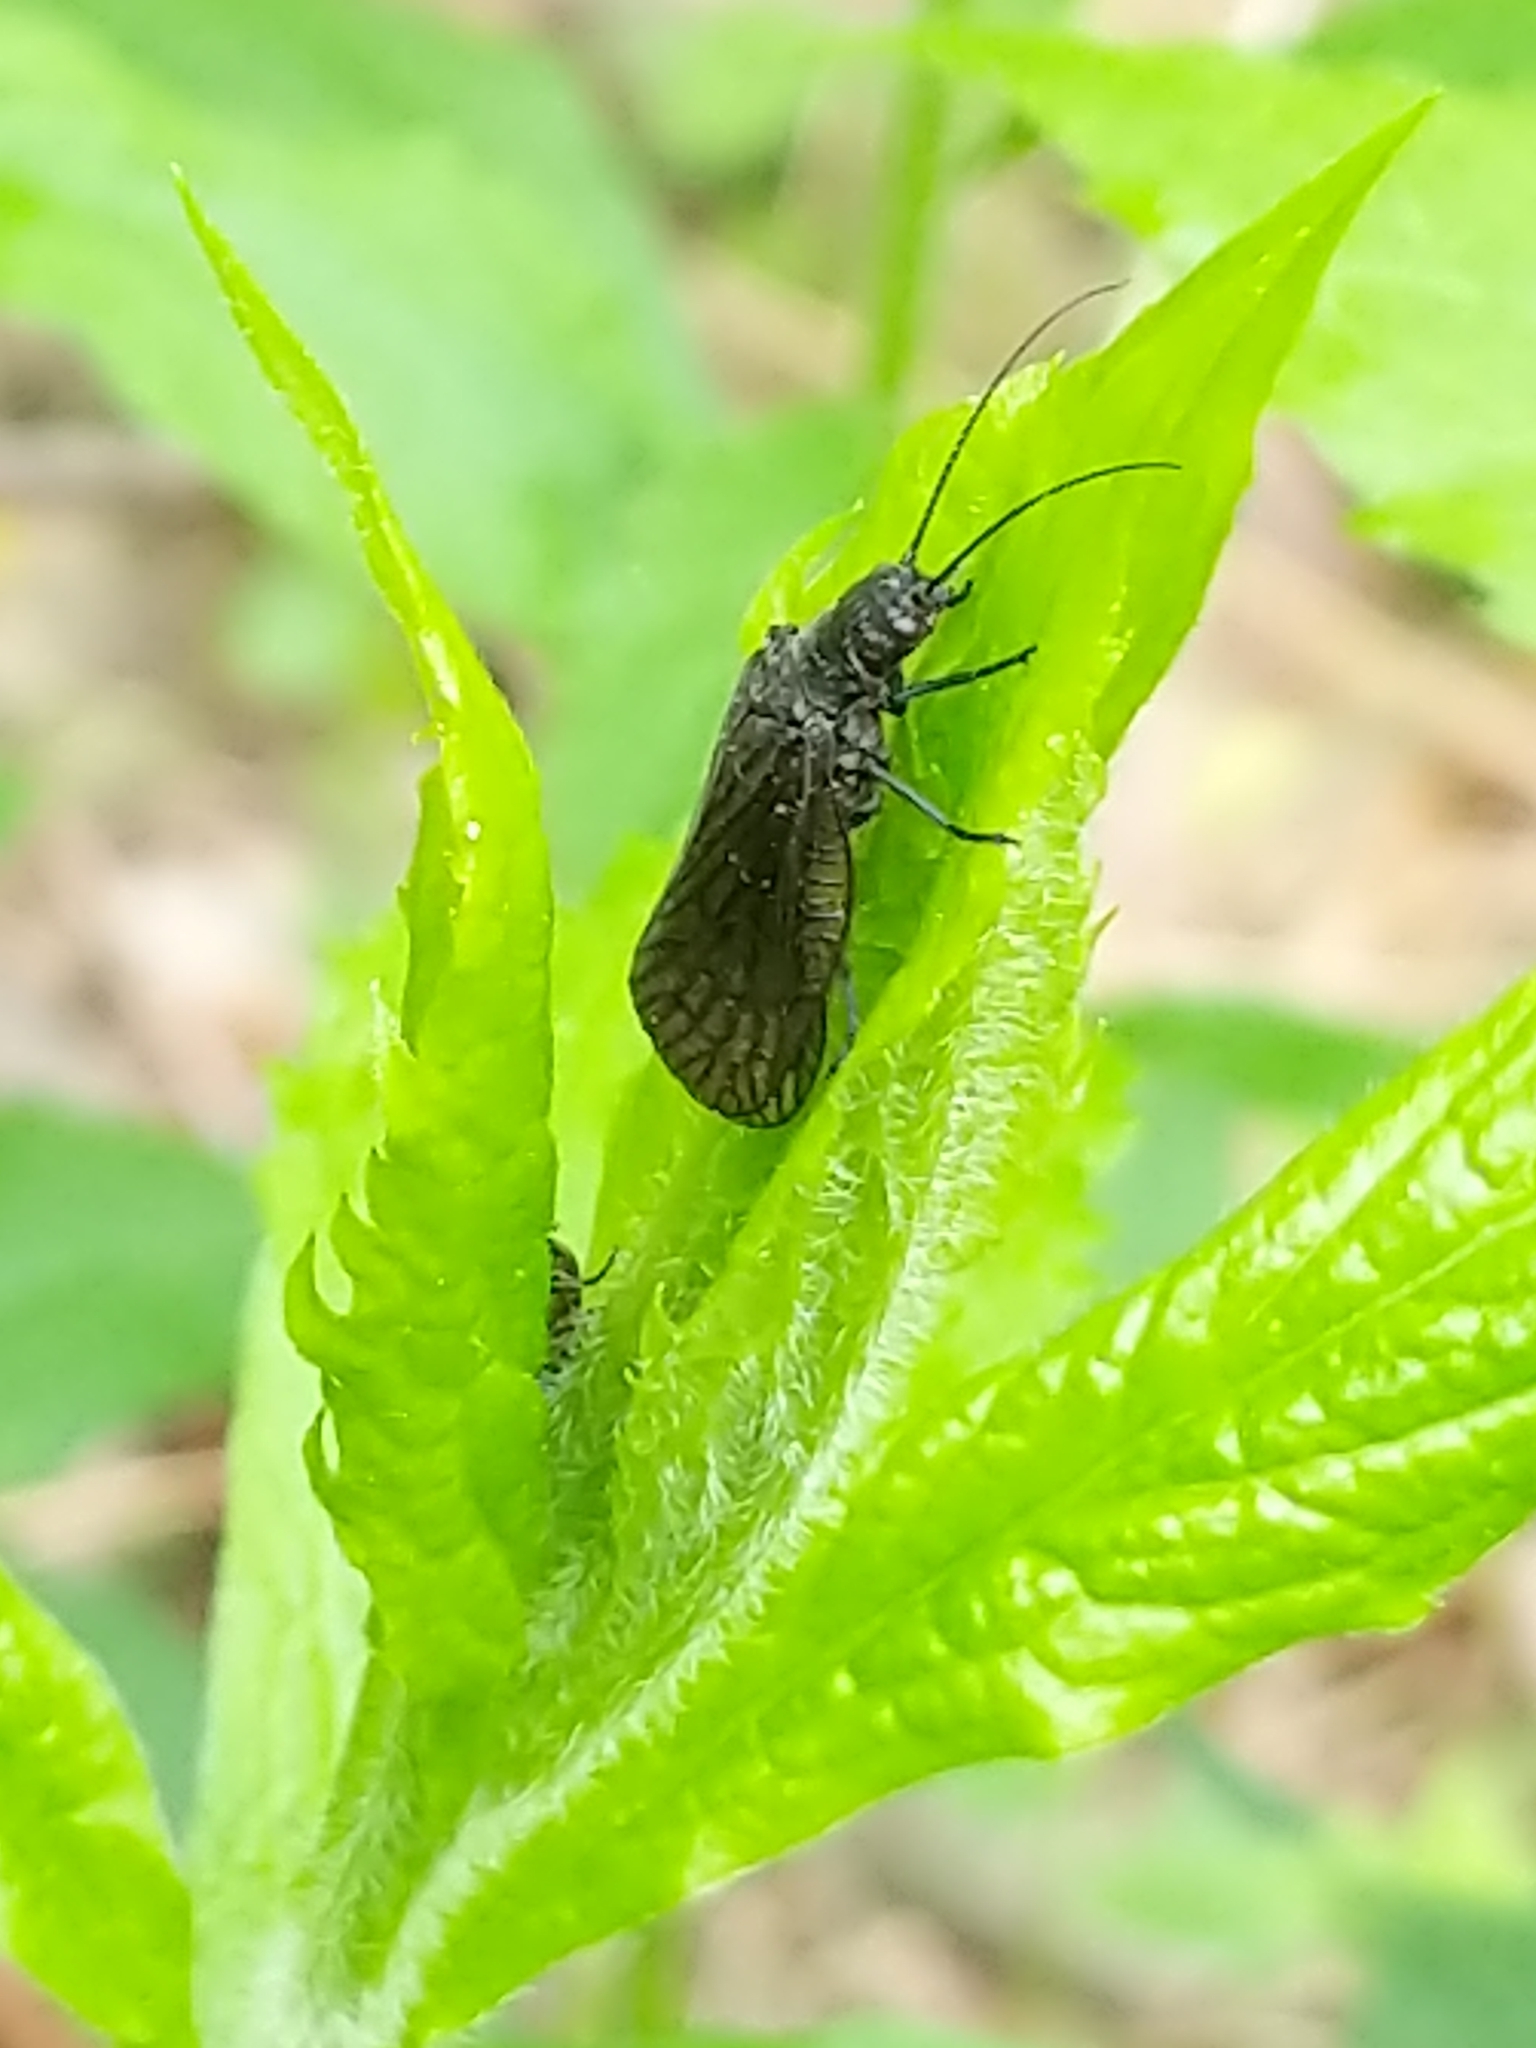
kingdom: Animalia
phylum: Arthropoda
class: Insecta
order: Megaloptera
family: Sialidae
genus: Sialis
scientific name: Sialis
